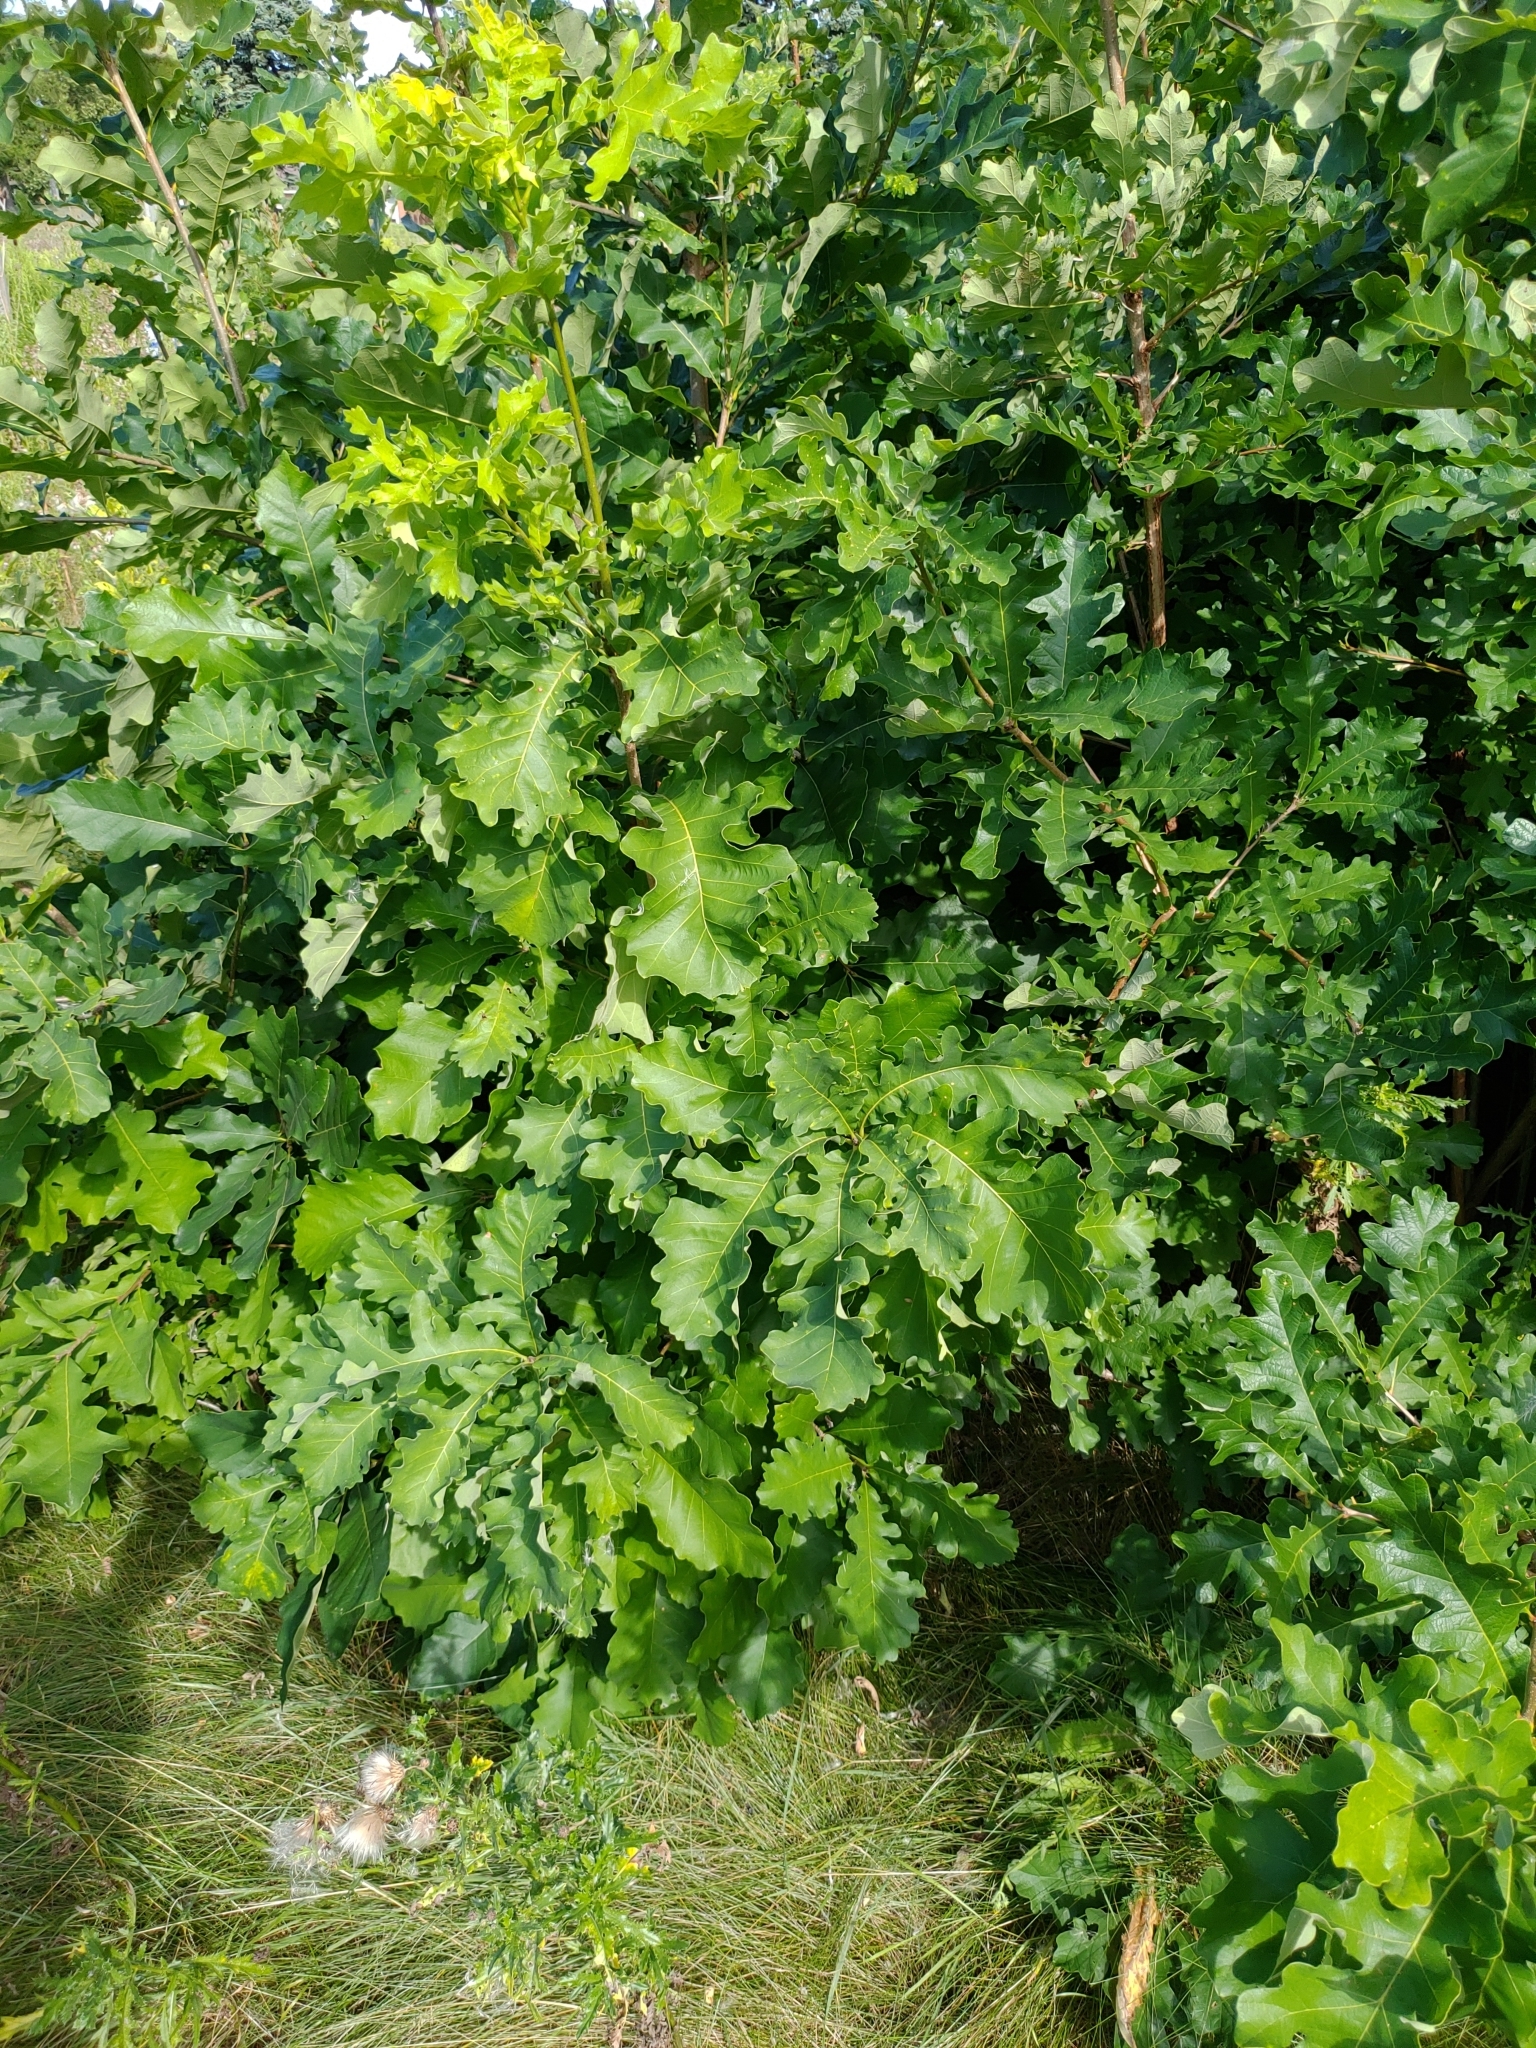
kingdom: Plantae
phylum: Tracheophyta
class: Magnoliopsida
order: Fagales
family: Fagaceae
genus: Quercus
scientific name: Quercus macrocarpa
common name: Bur oak
